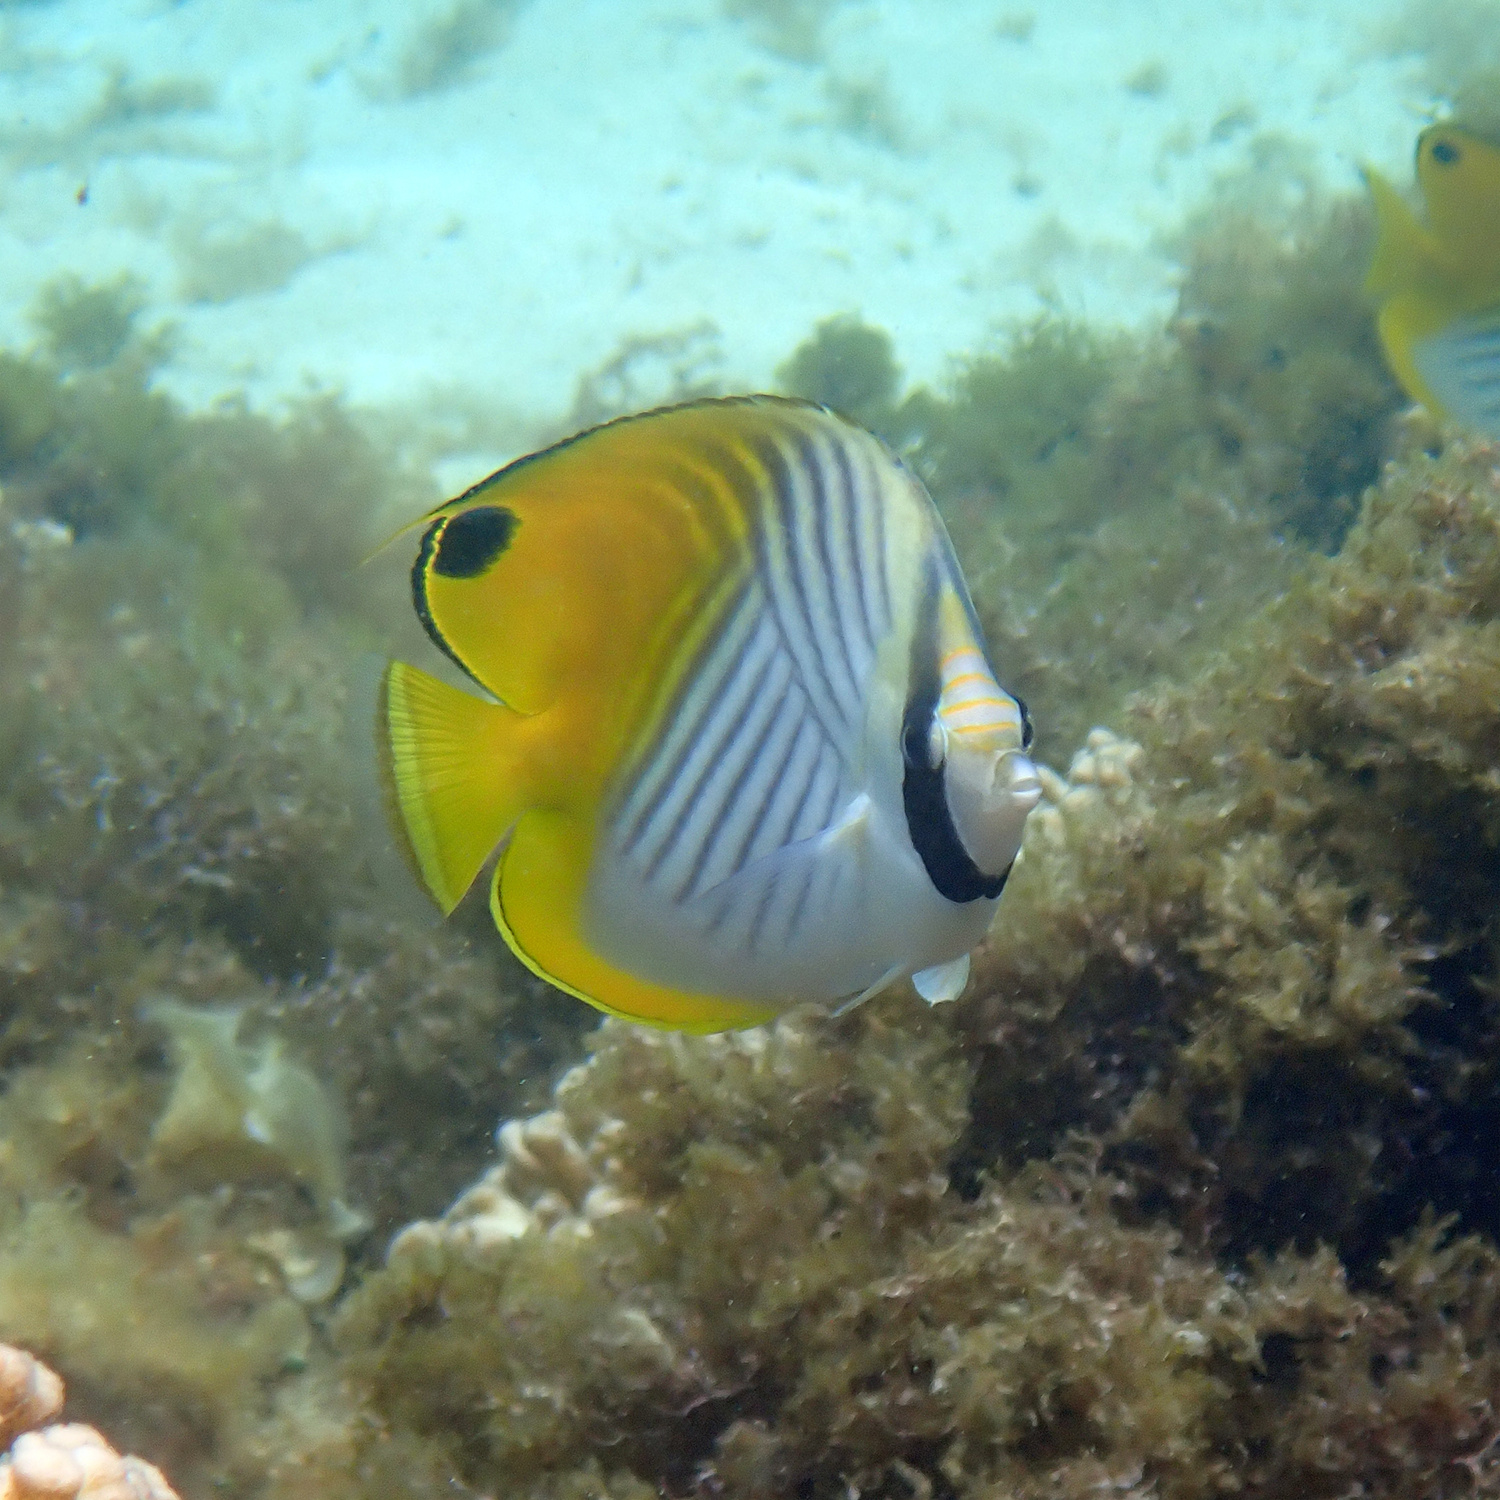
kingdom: Animalia
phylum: Chordata
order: Perciformes
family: Chaetodontidae
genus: Chaetodon
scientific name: Chaetodon auriga
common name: Threadfin butterflyfish
